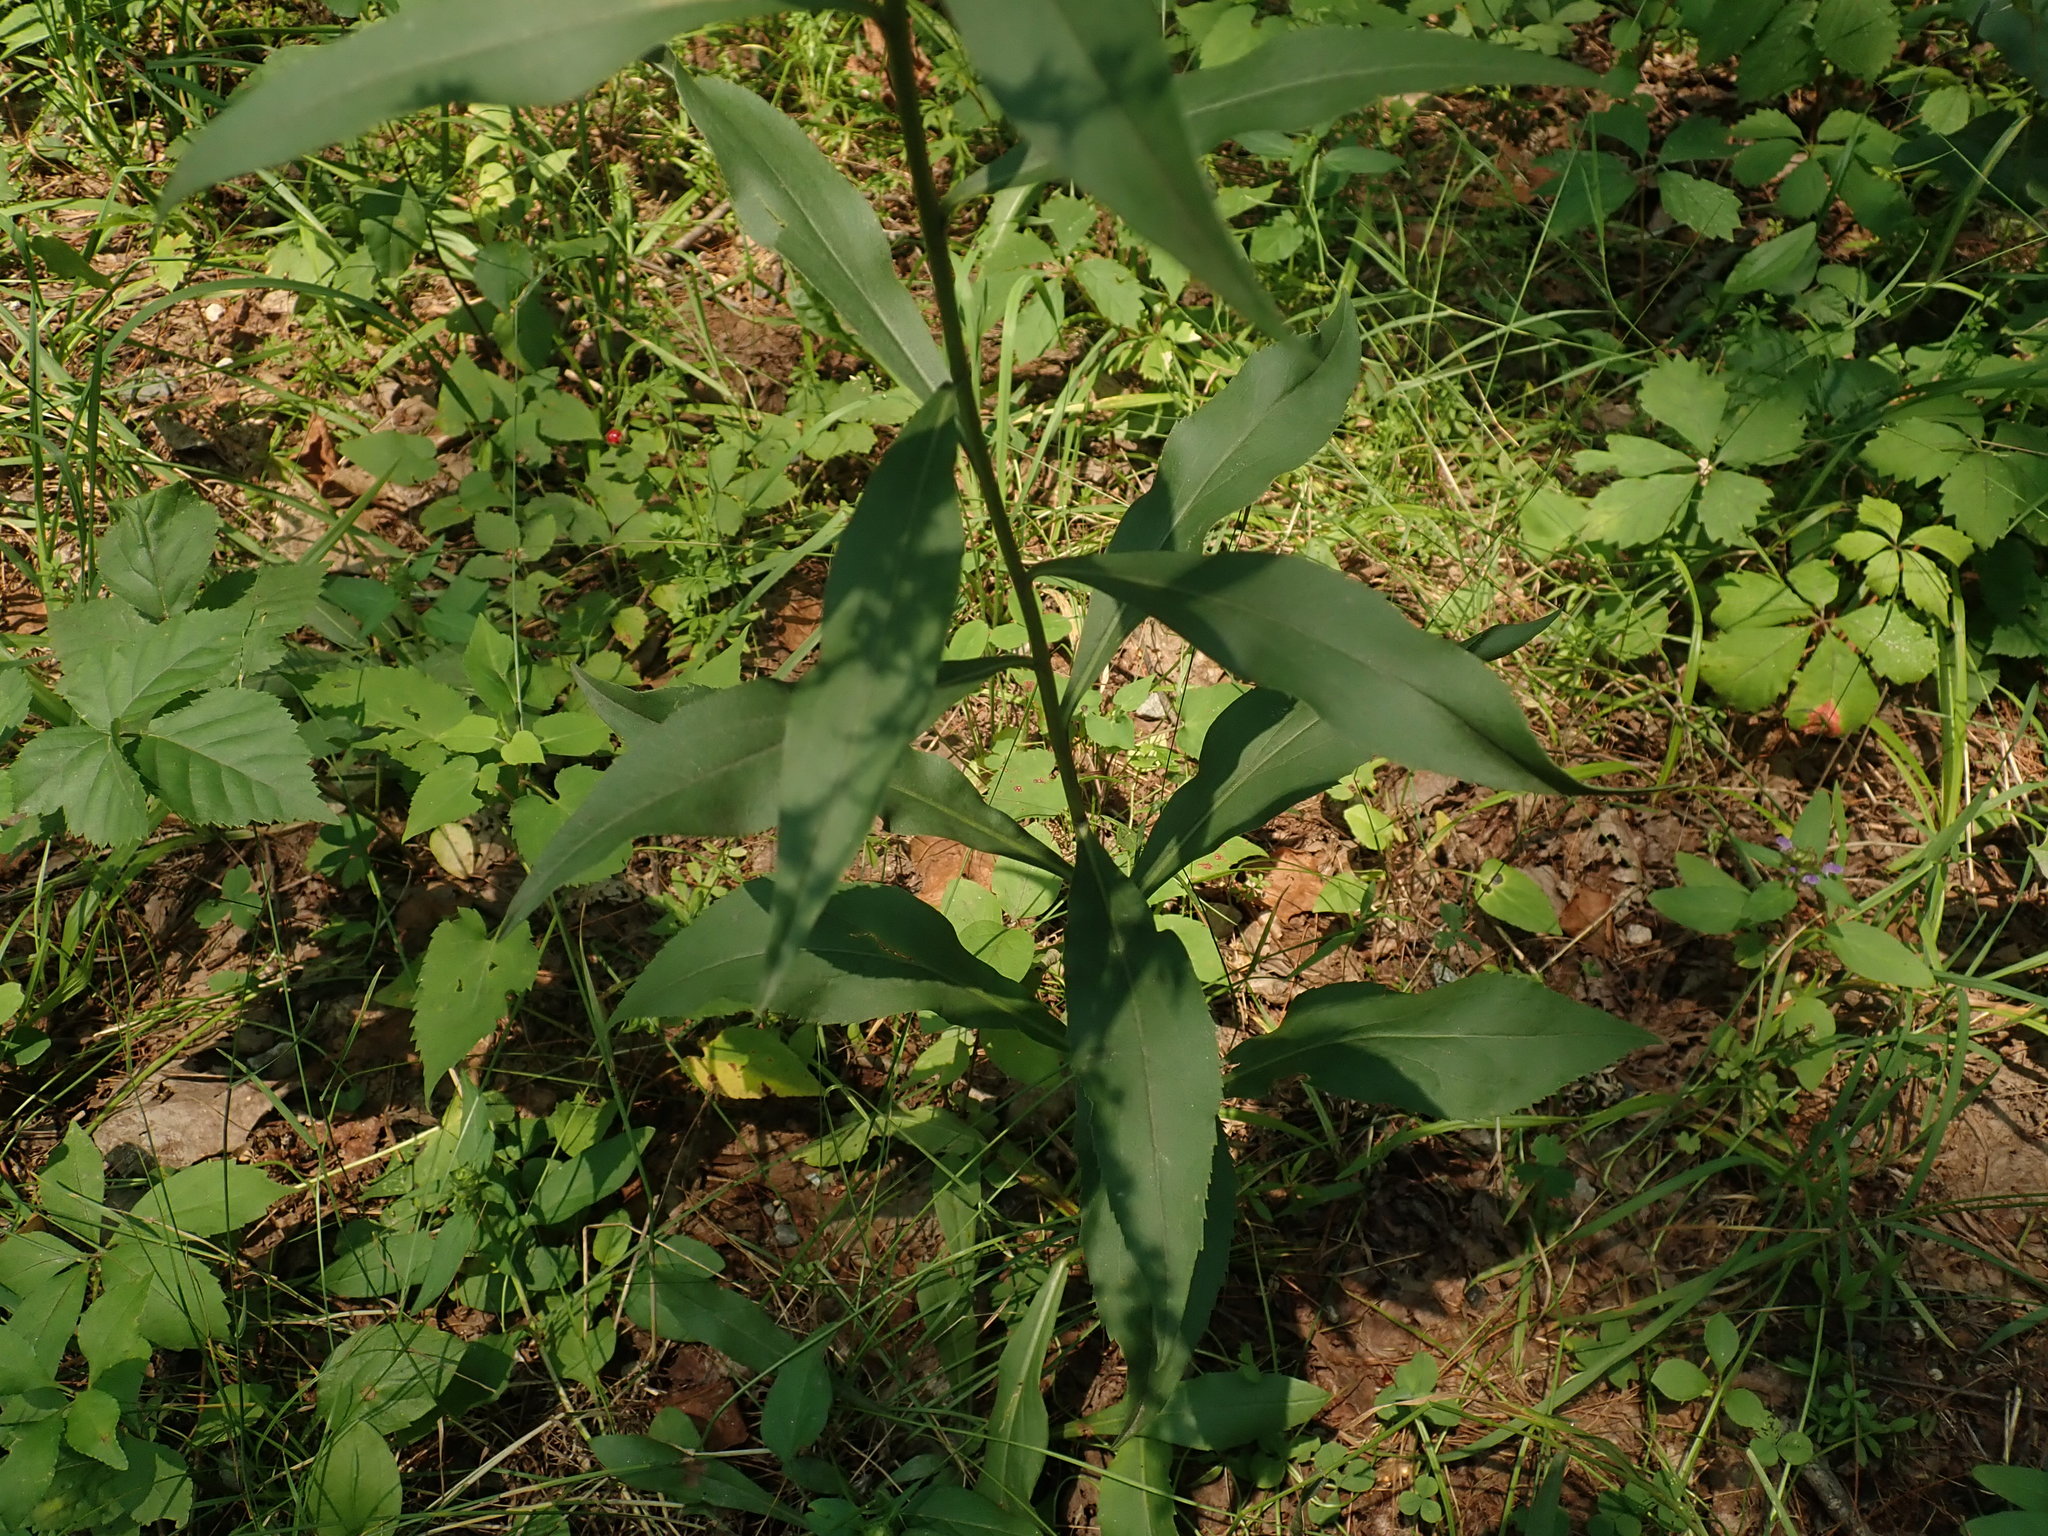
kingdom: Plantae
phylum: Tracheophyta
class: Magnoliopsida
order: Asterales
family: Asteraceae
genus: Solidago
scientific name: Solidago juncea
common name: Early goldenrod
